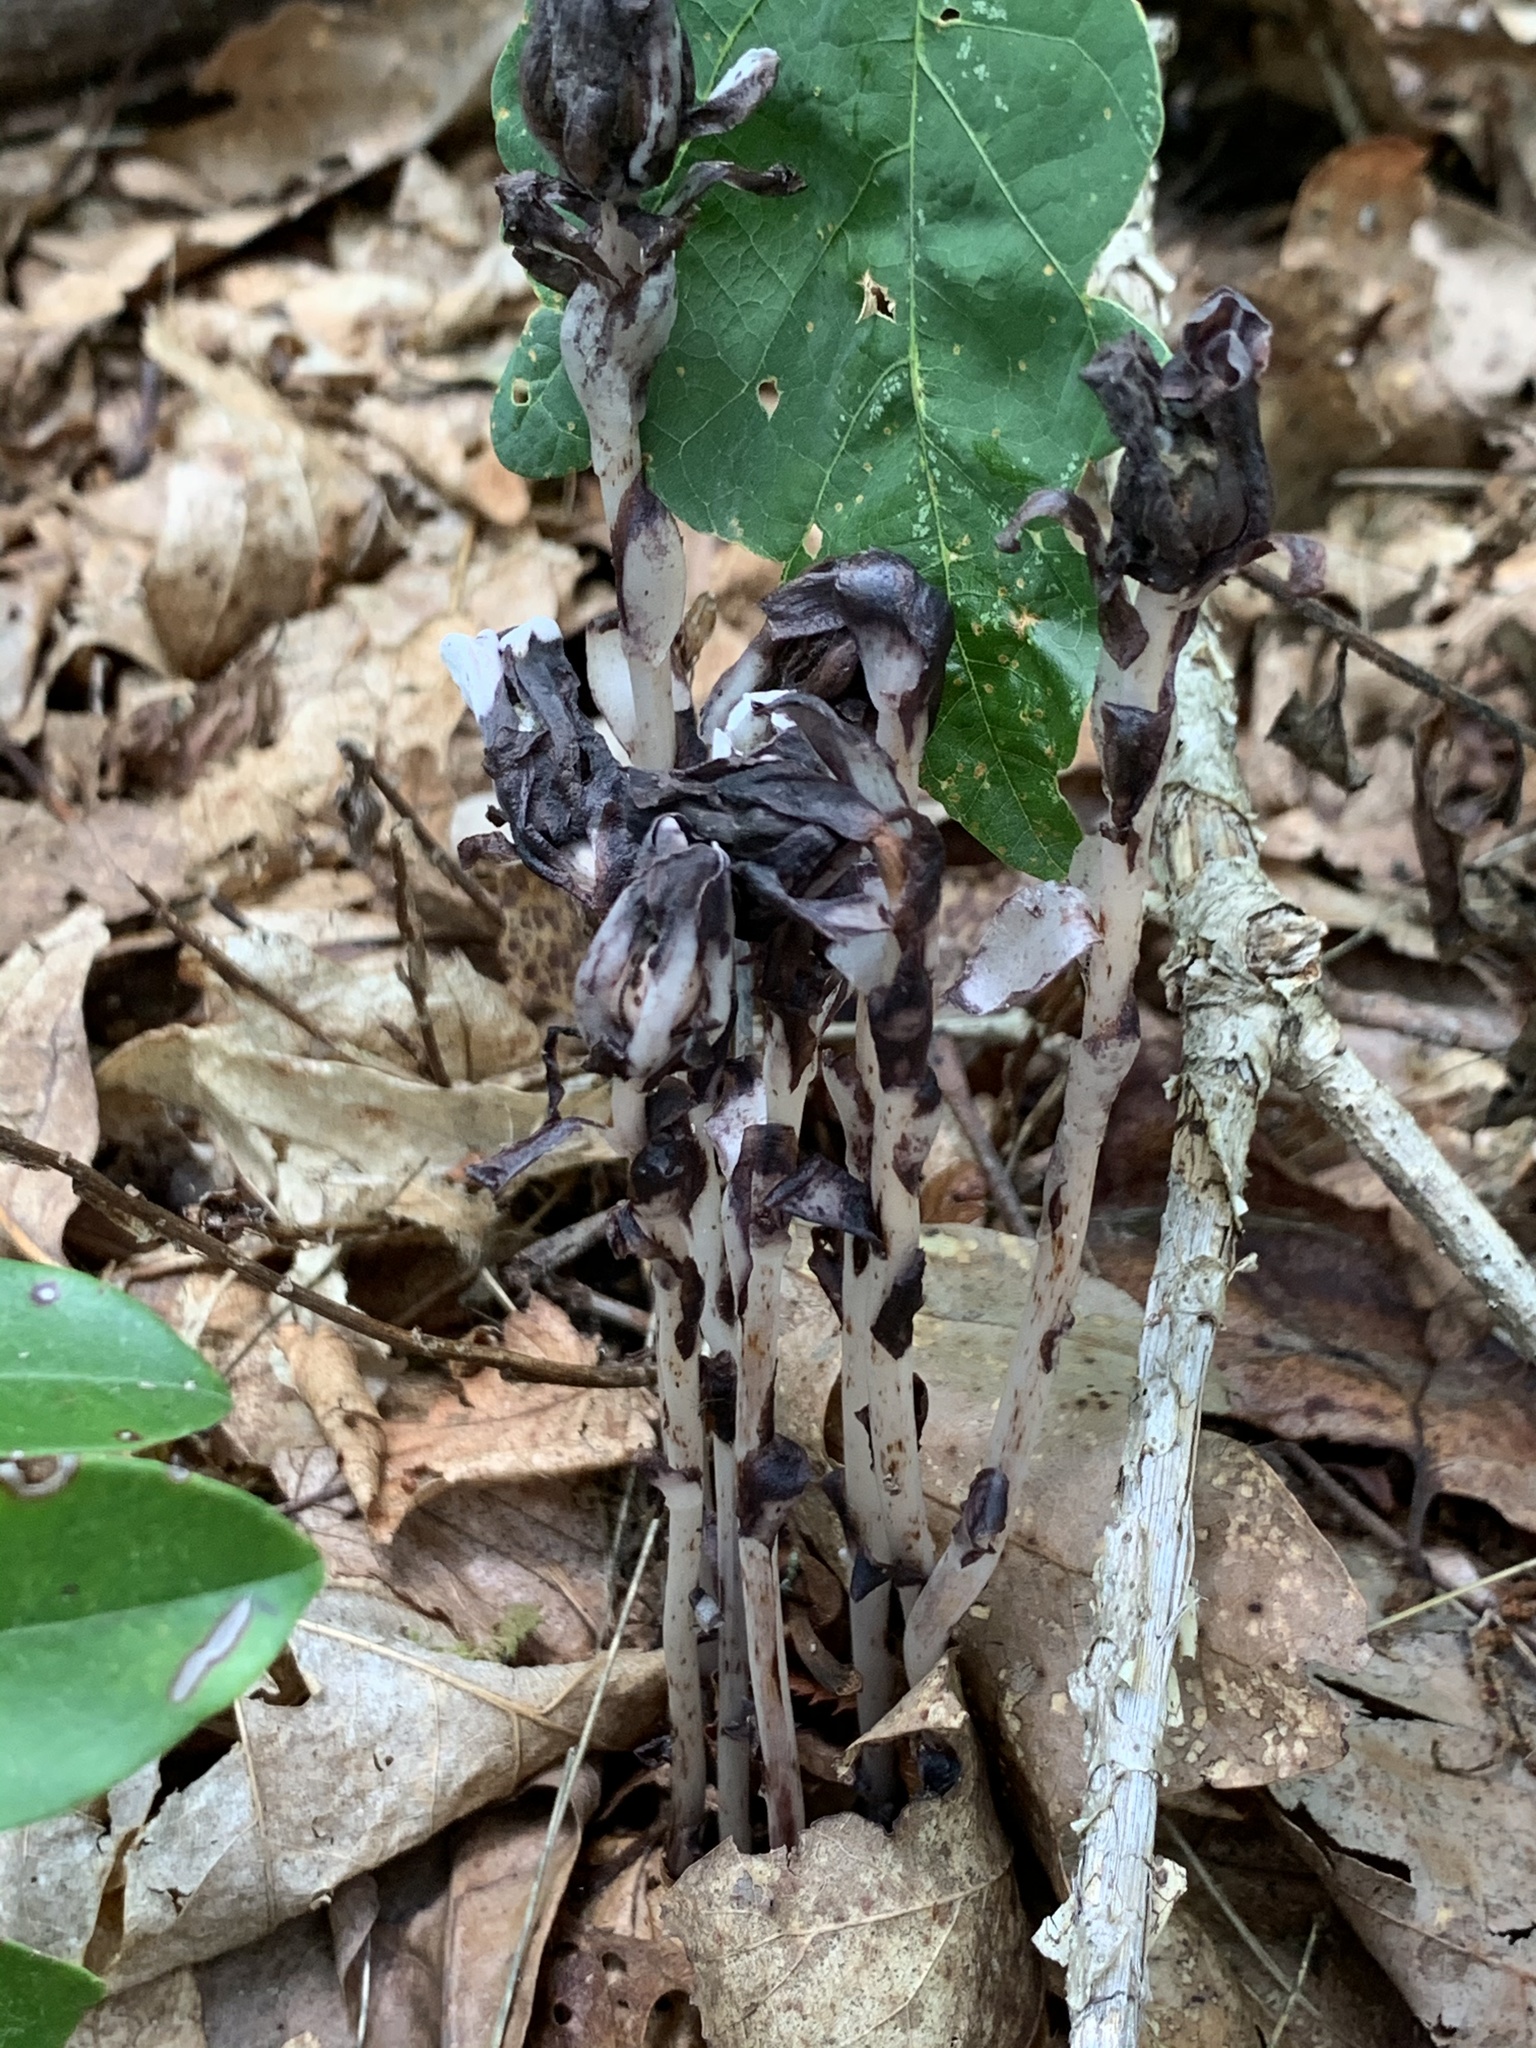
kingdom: Plantae
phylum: Tracheophyta
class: Magnoliopsida
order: Ericales
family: Ericaceae
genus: Monotropa
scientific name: Monotropa uniflora
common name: Convulsion root
